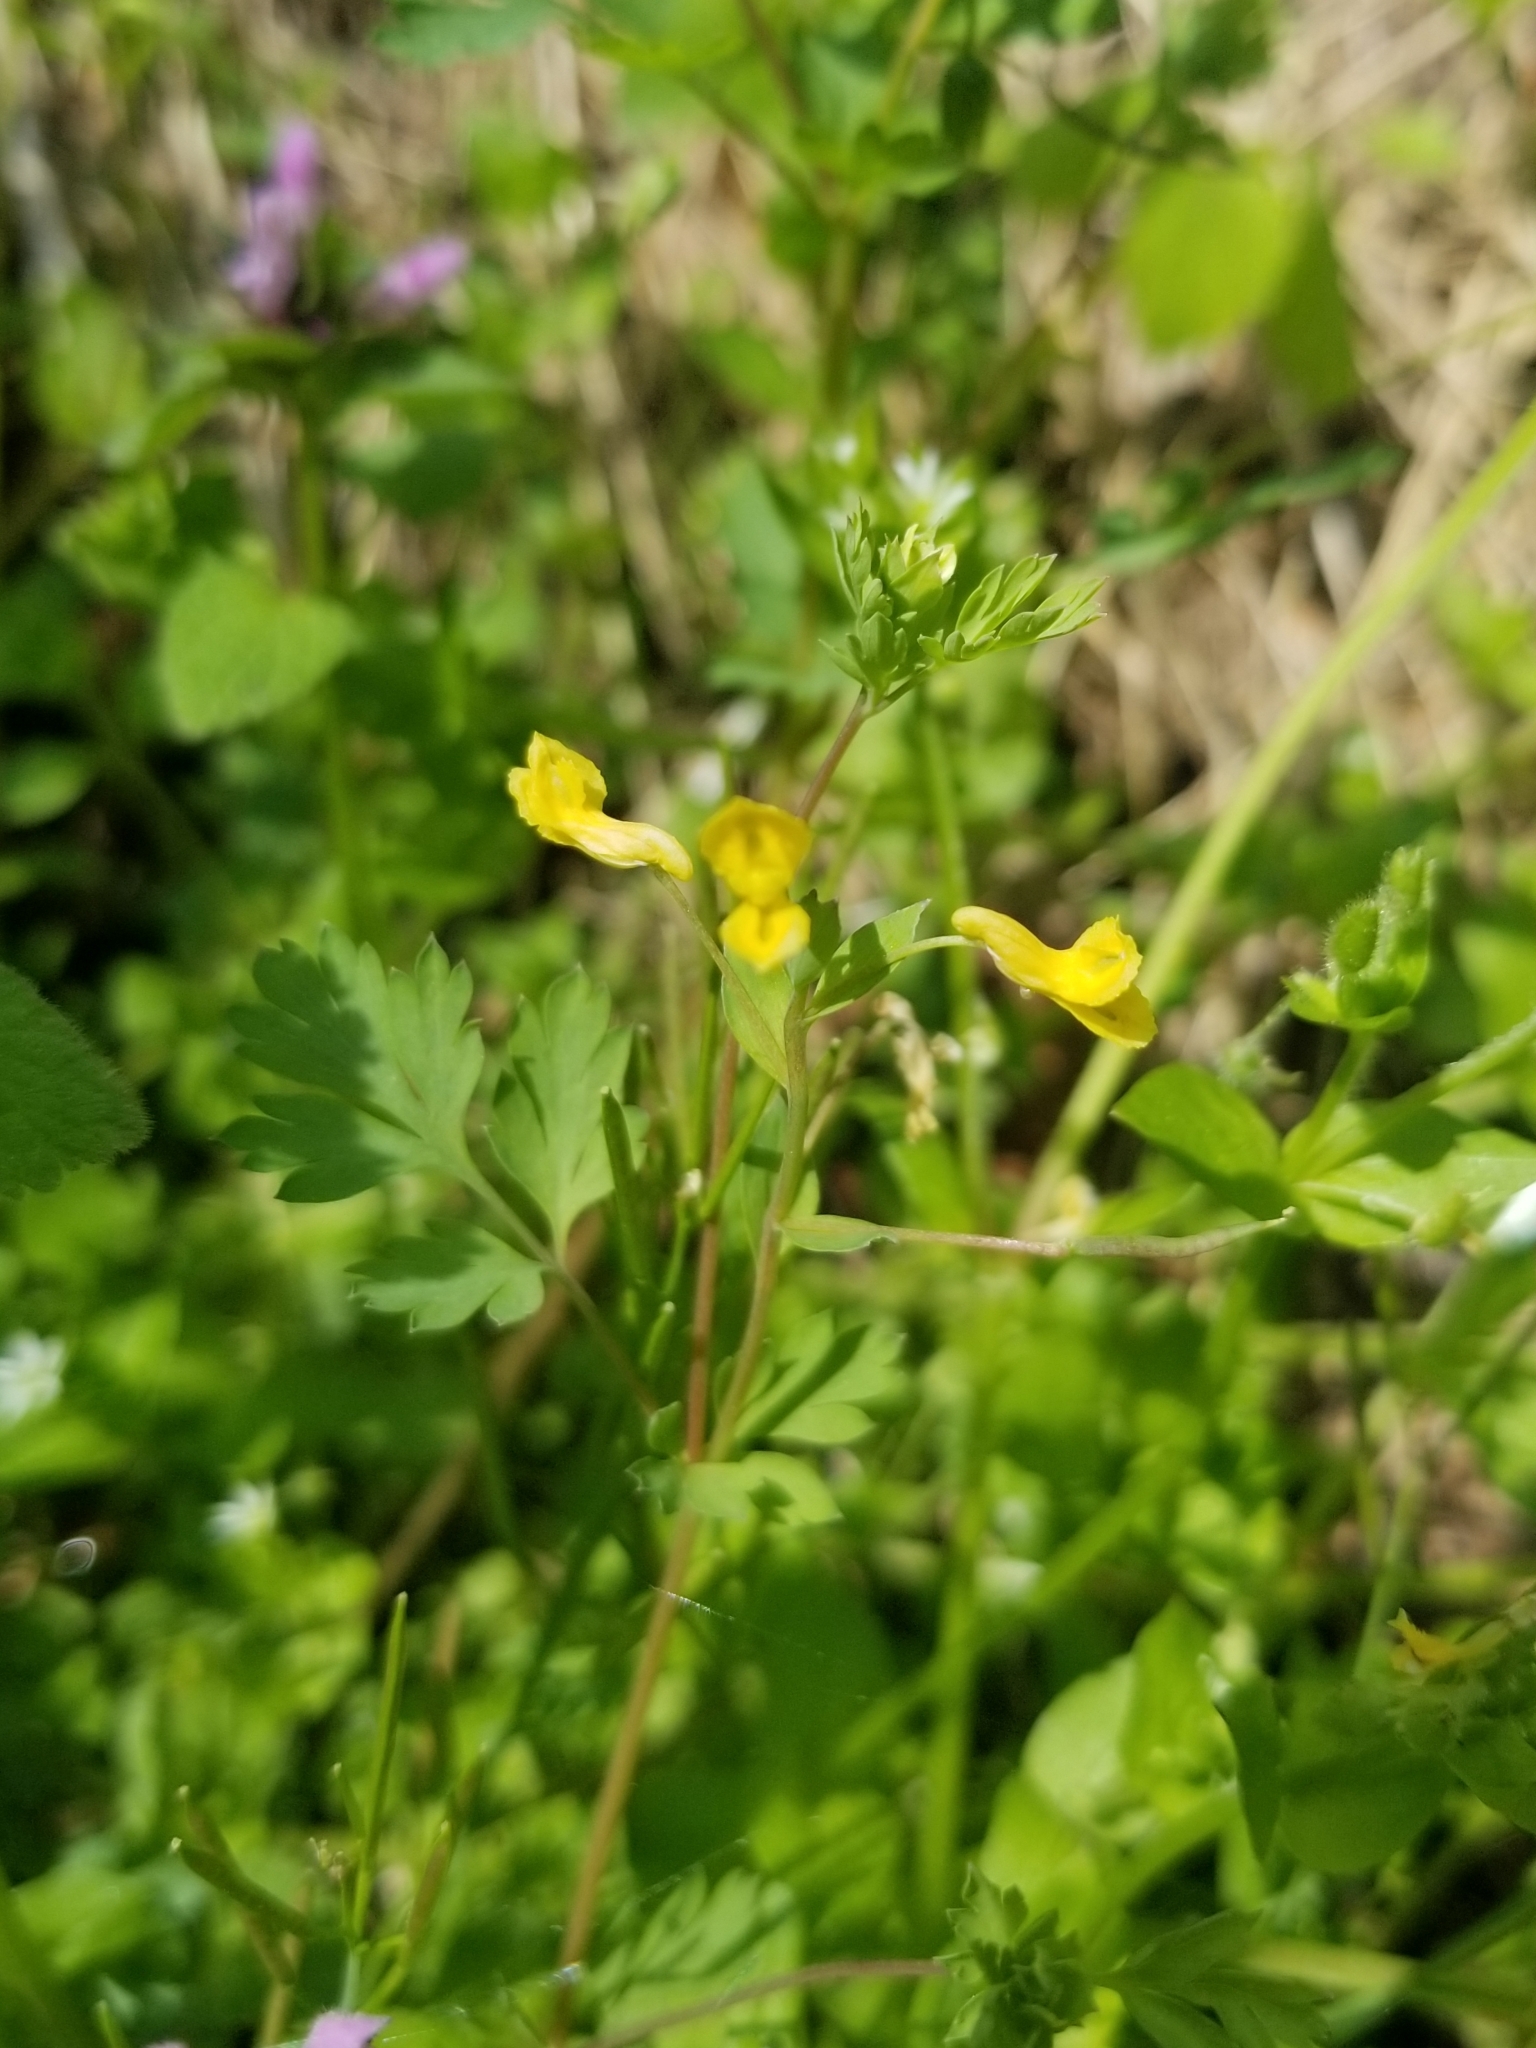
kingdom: Plantae
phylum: Tracheophyta
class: Magnoliopsida
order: Ranunculales
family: Papaveraceae
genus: Corydalis
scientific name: Corydalis flavula
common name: Yellow corydalis
